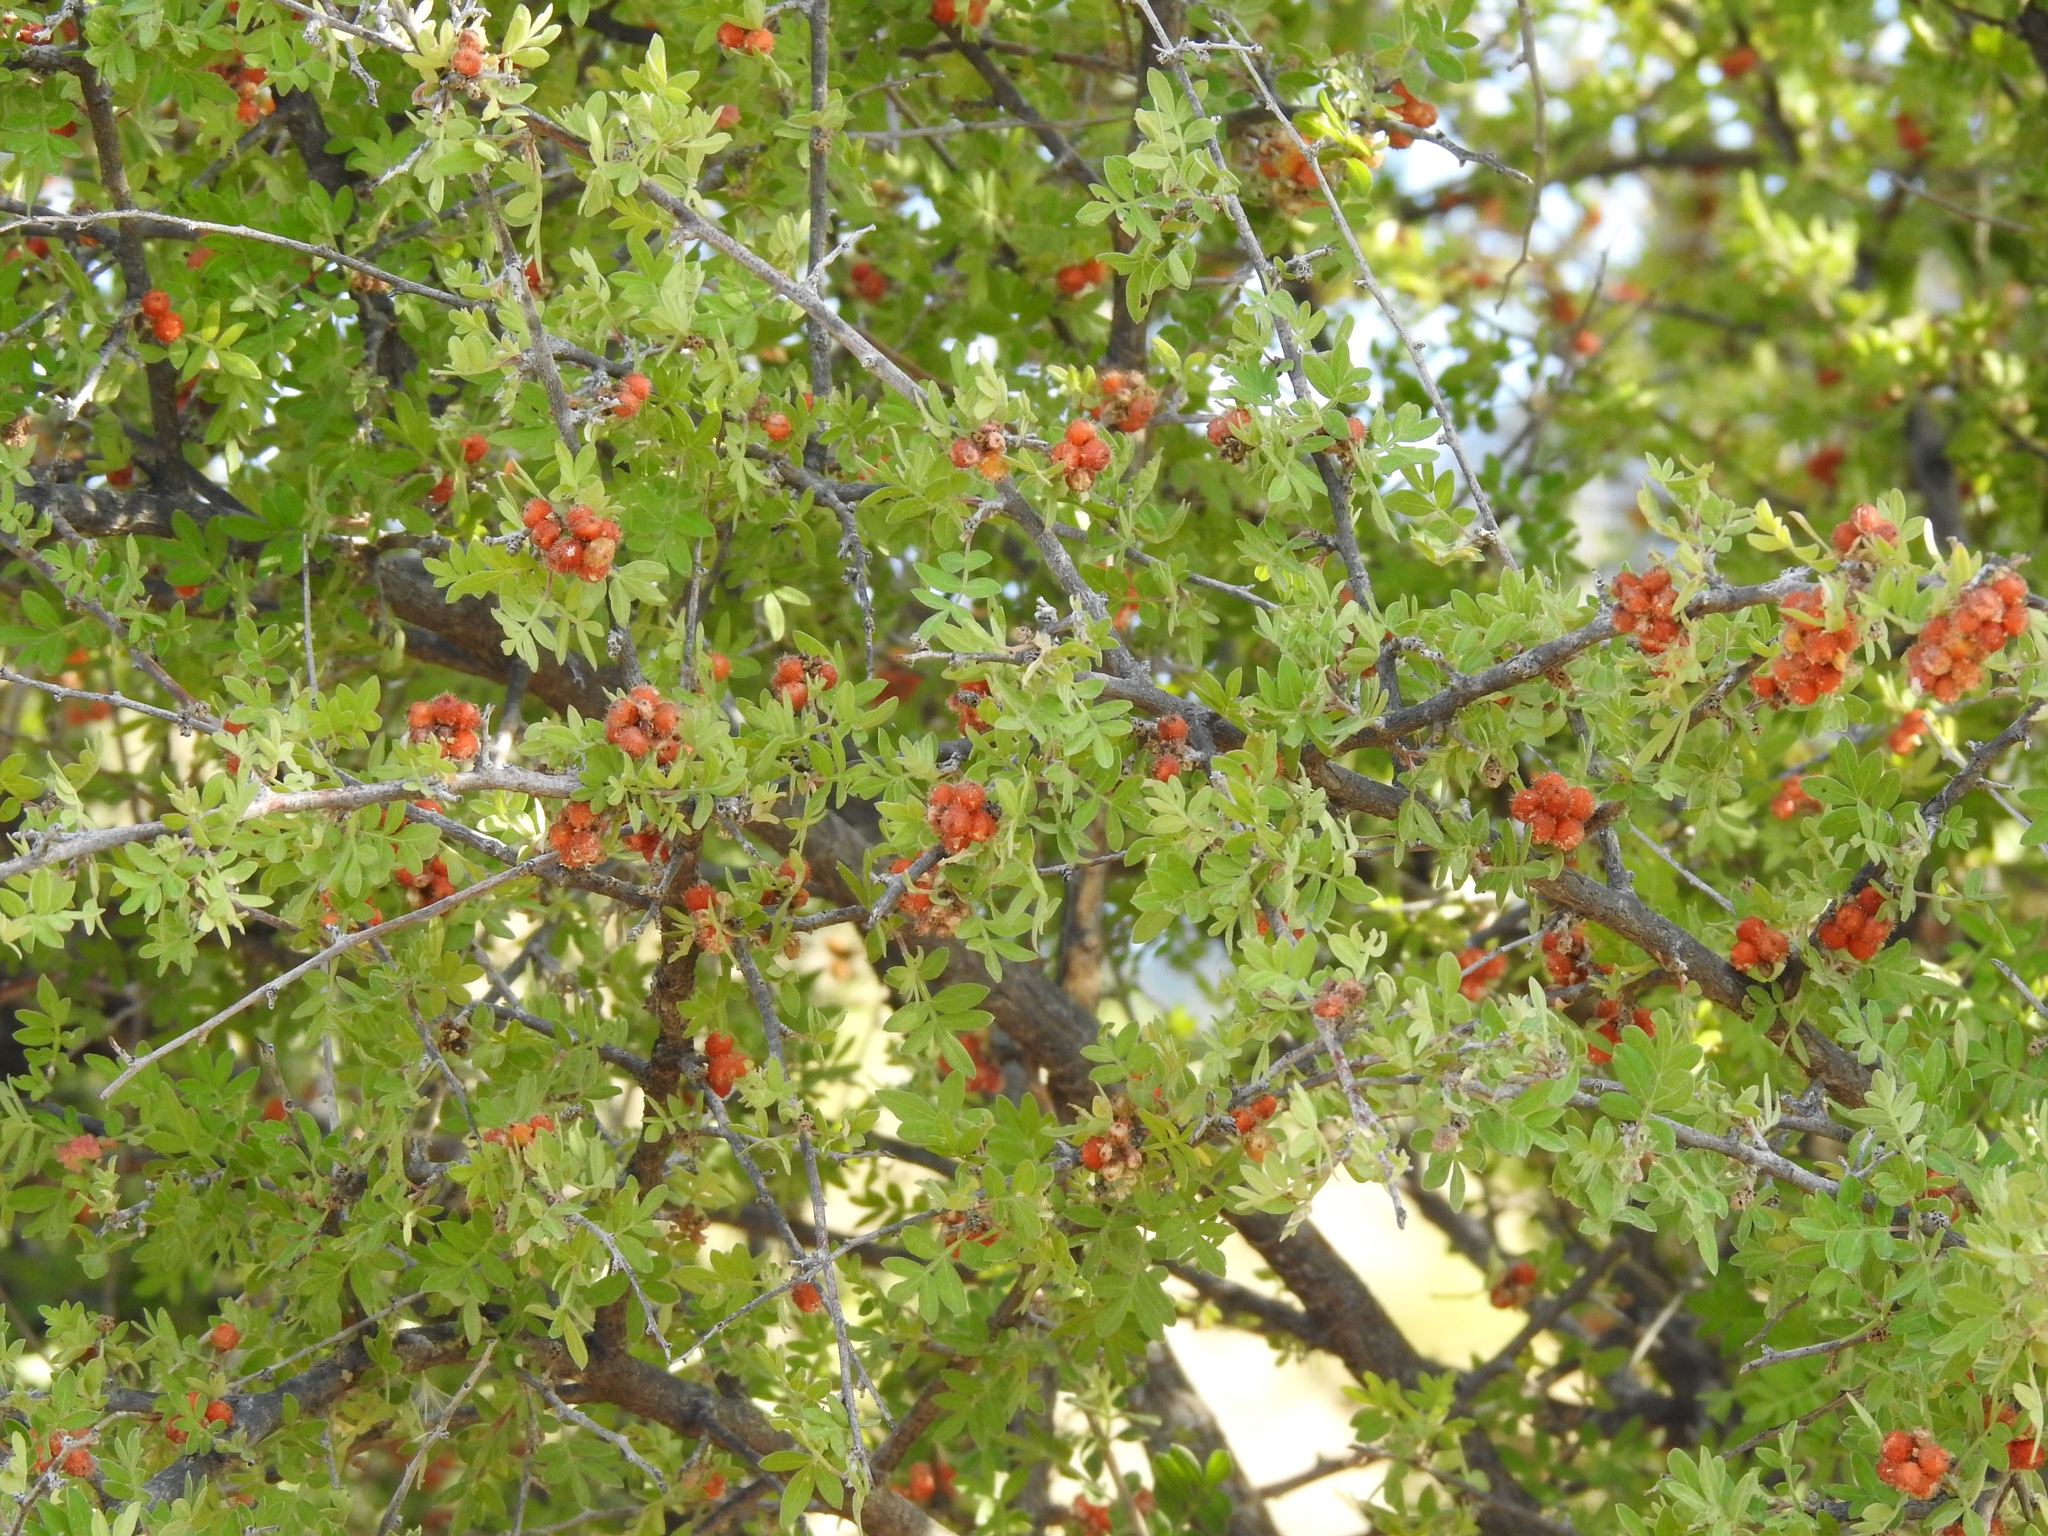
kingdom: Plantae
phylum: Tracheophyta
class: Magnoliopsida
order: Sapindales
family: Anacardiaceae
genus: Rhus
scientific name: Rhus microphylla
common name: Desert sumac
